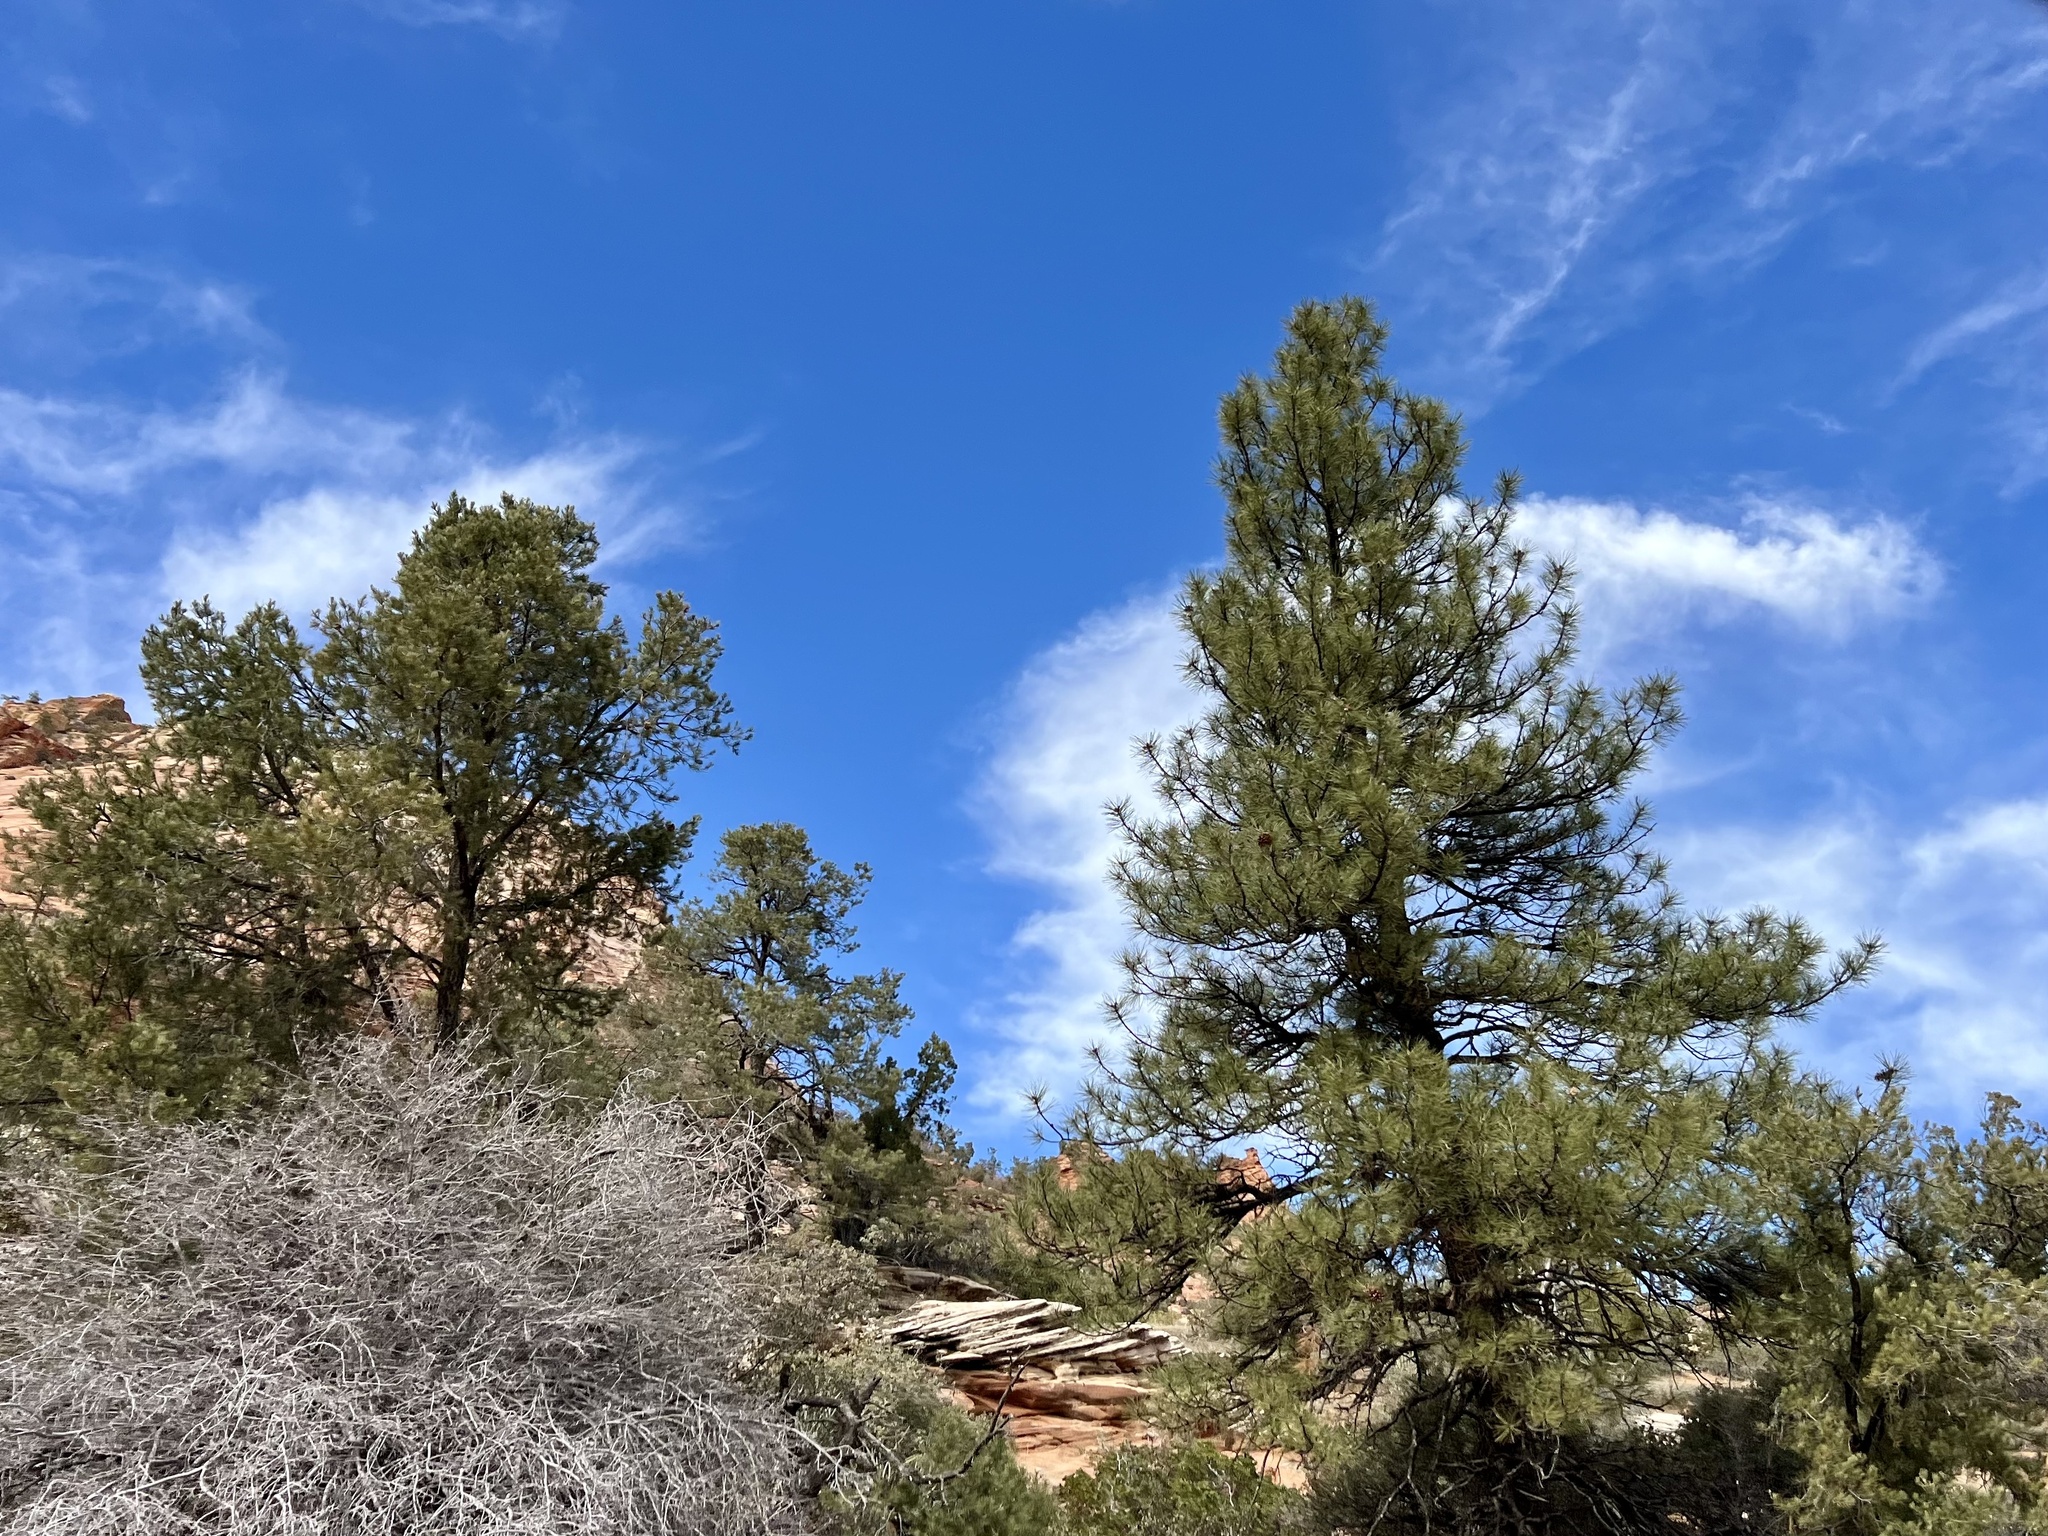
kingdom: Plantae
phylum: Tracheophyta
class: Pinopsida
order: Pinales
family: Pinaceae
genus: Pinus
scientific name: Pinus ponderosa
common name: Western yellow-pine
